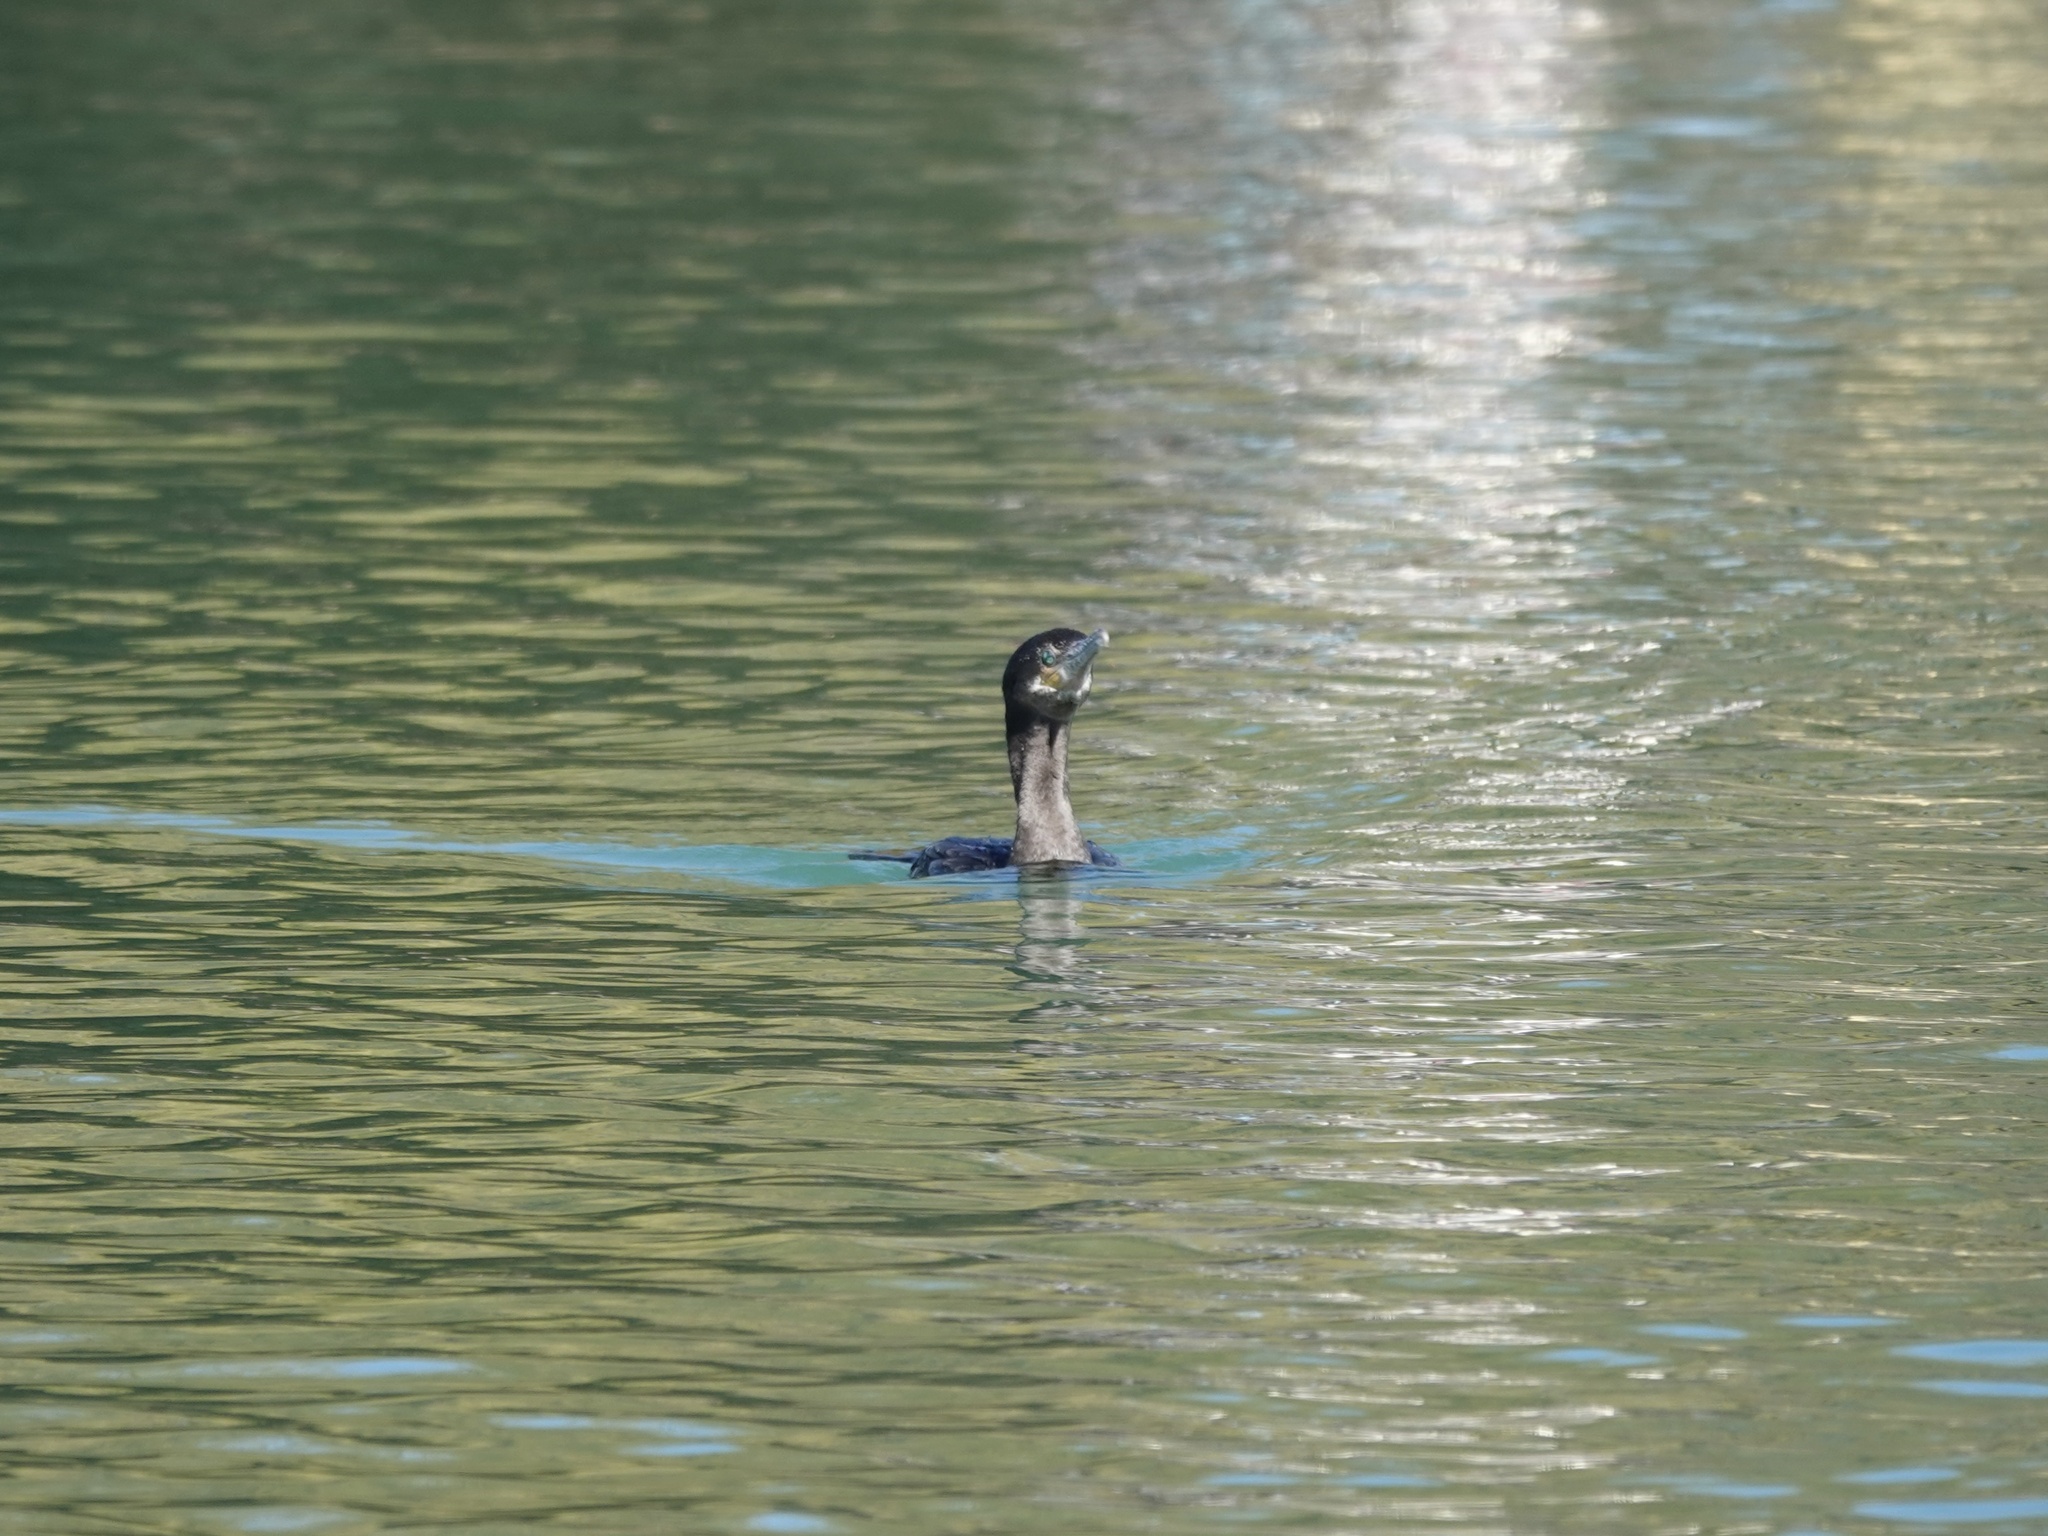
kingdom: Animalia
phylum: Chordata
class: Aves
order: Suliformes
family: Phalacrocoracidae
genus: Phalacrocorax
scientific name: Phalacrocorax brasilianus
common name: Neotropic cormorant
